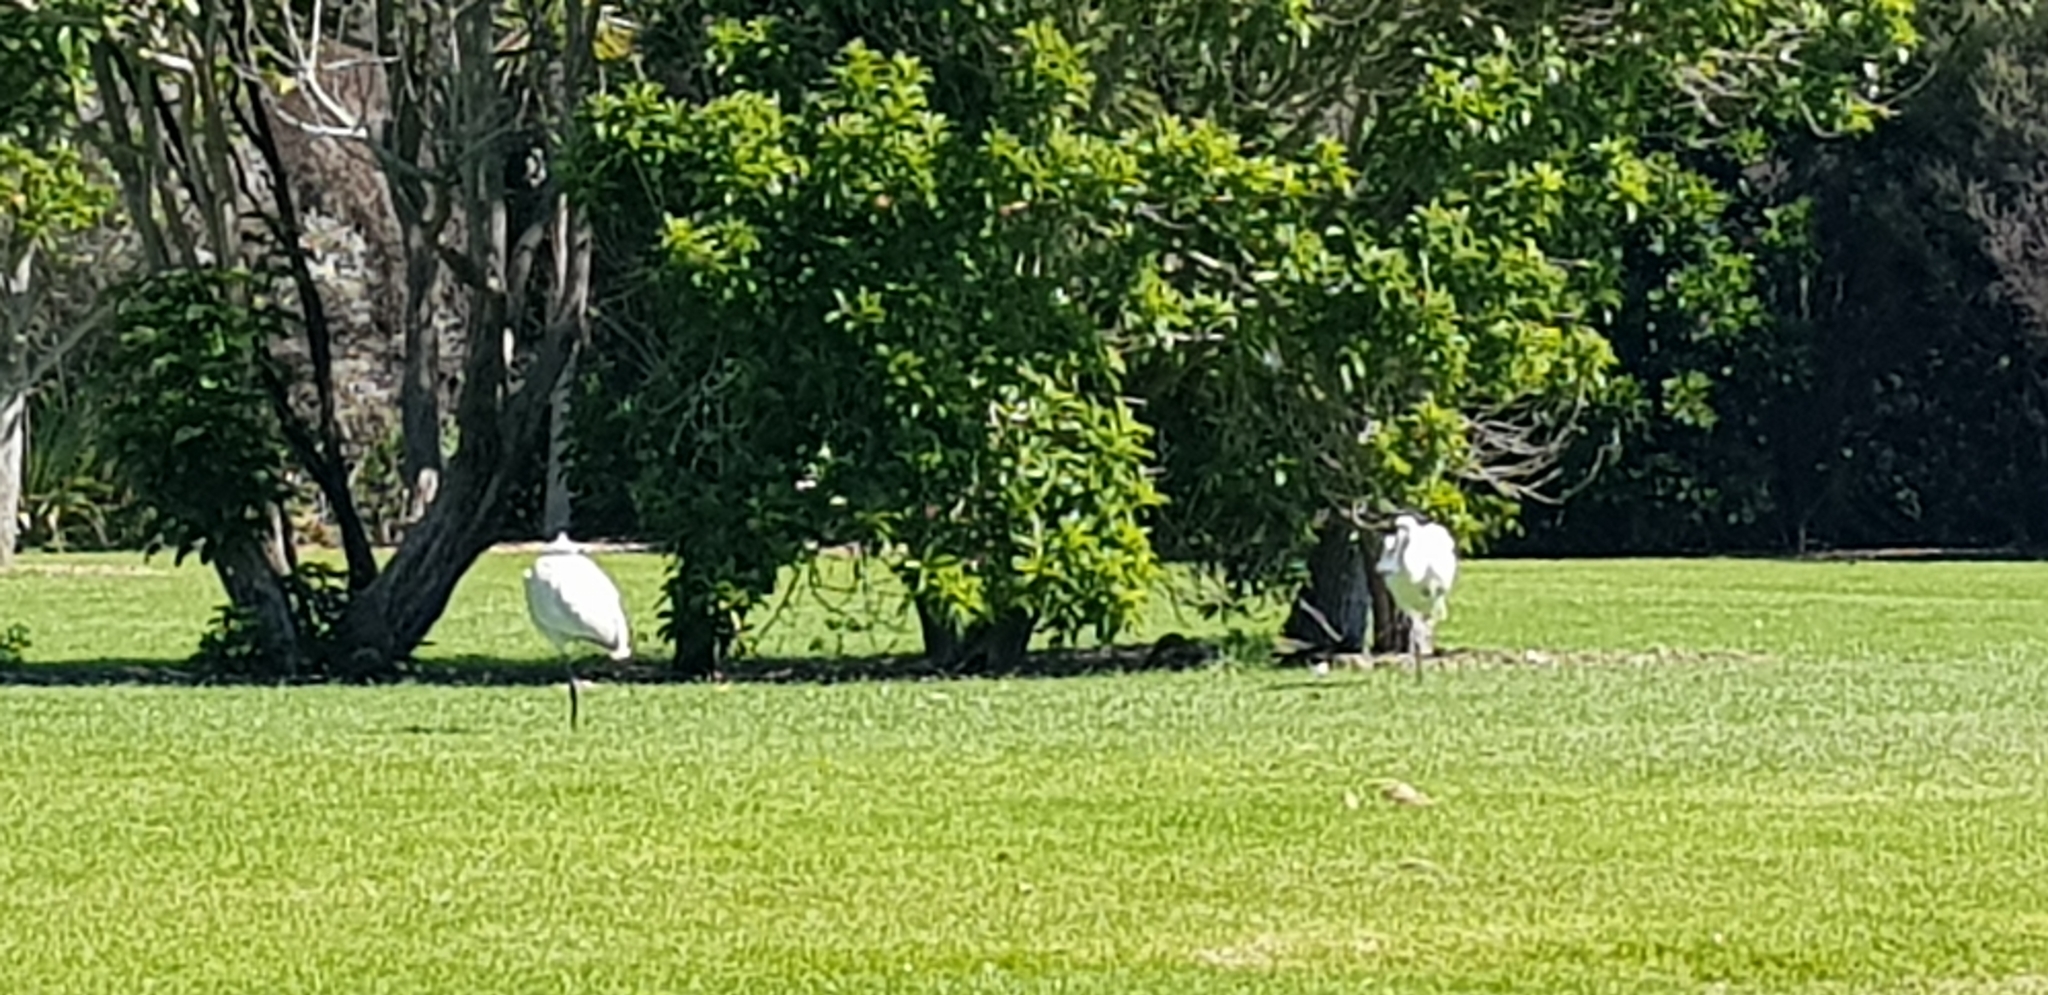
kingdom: Animalia
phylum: Chordata
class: Aves
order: Pelecaniformes
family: Threskiornithidae
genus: Platalea
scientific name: Platalea regia
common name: Royal spoonbill
